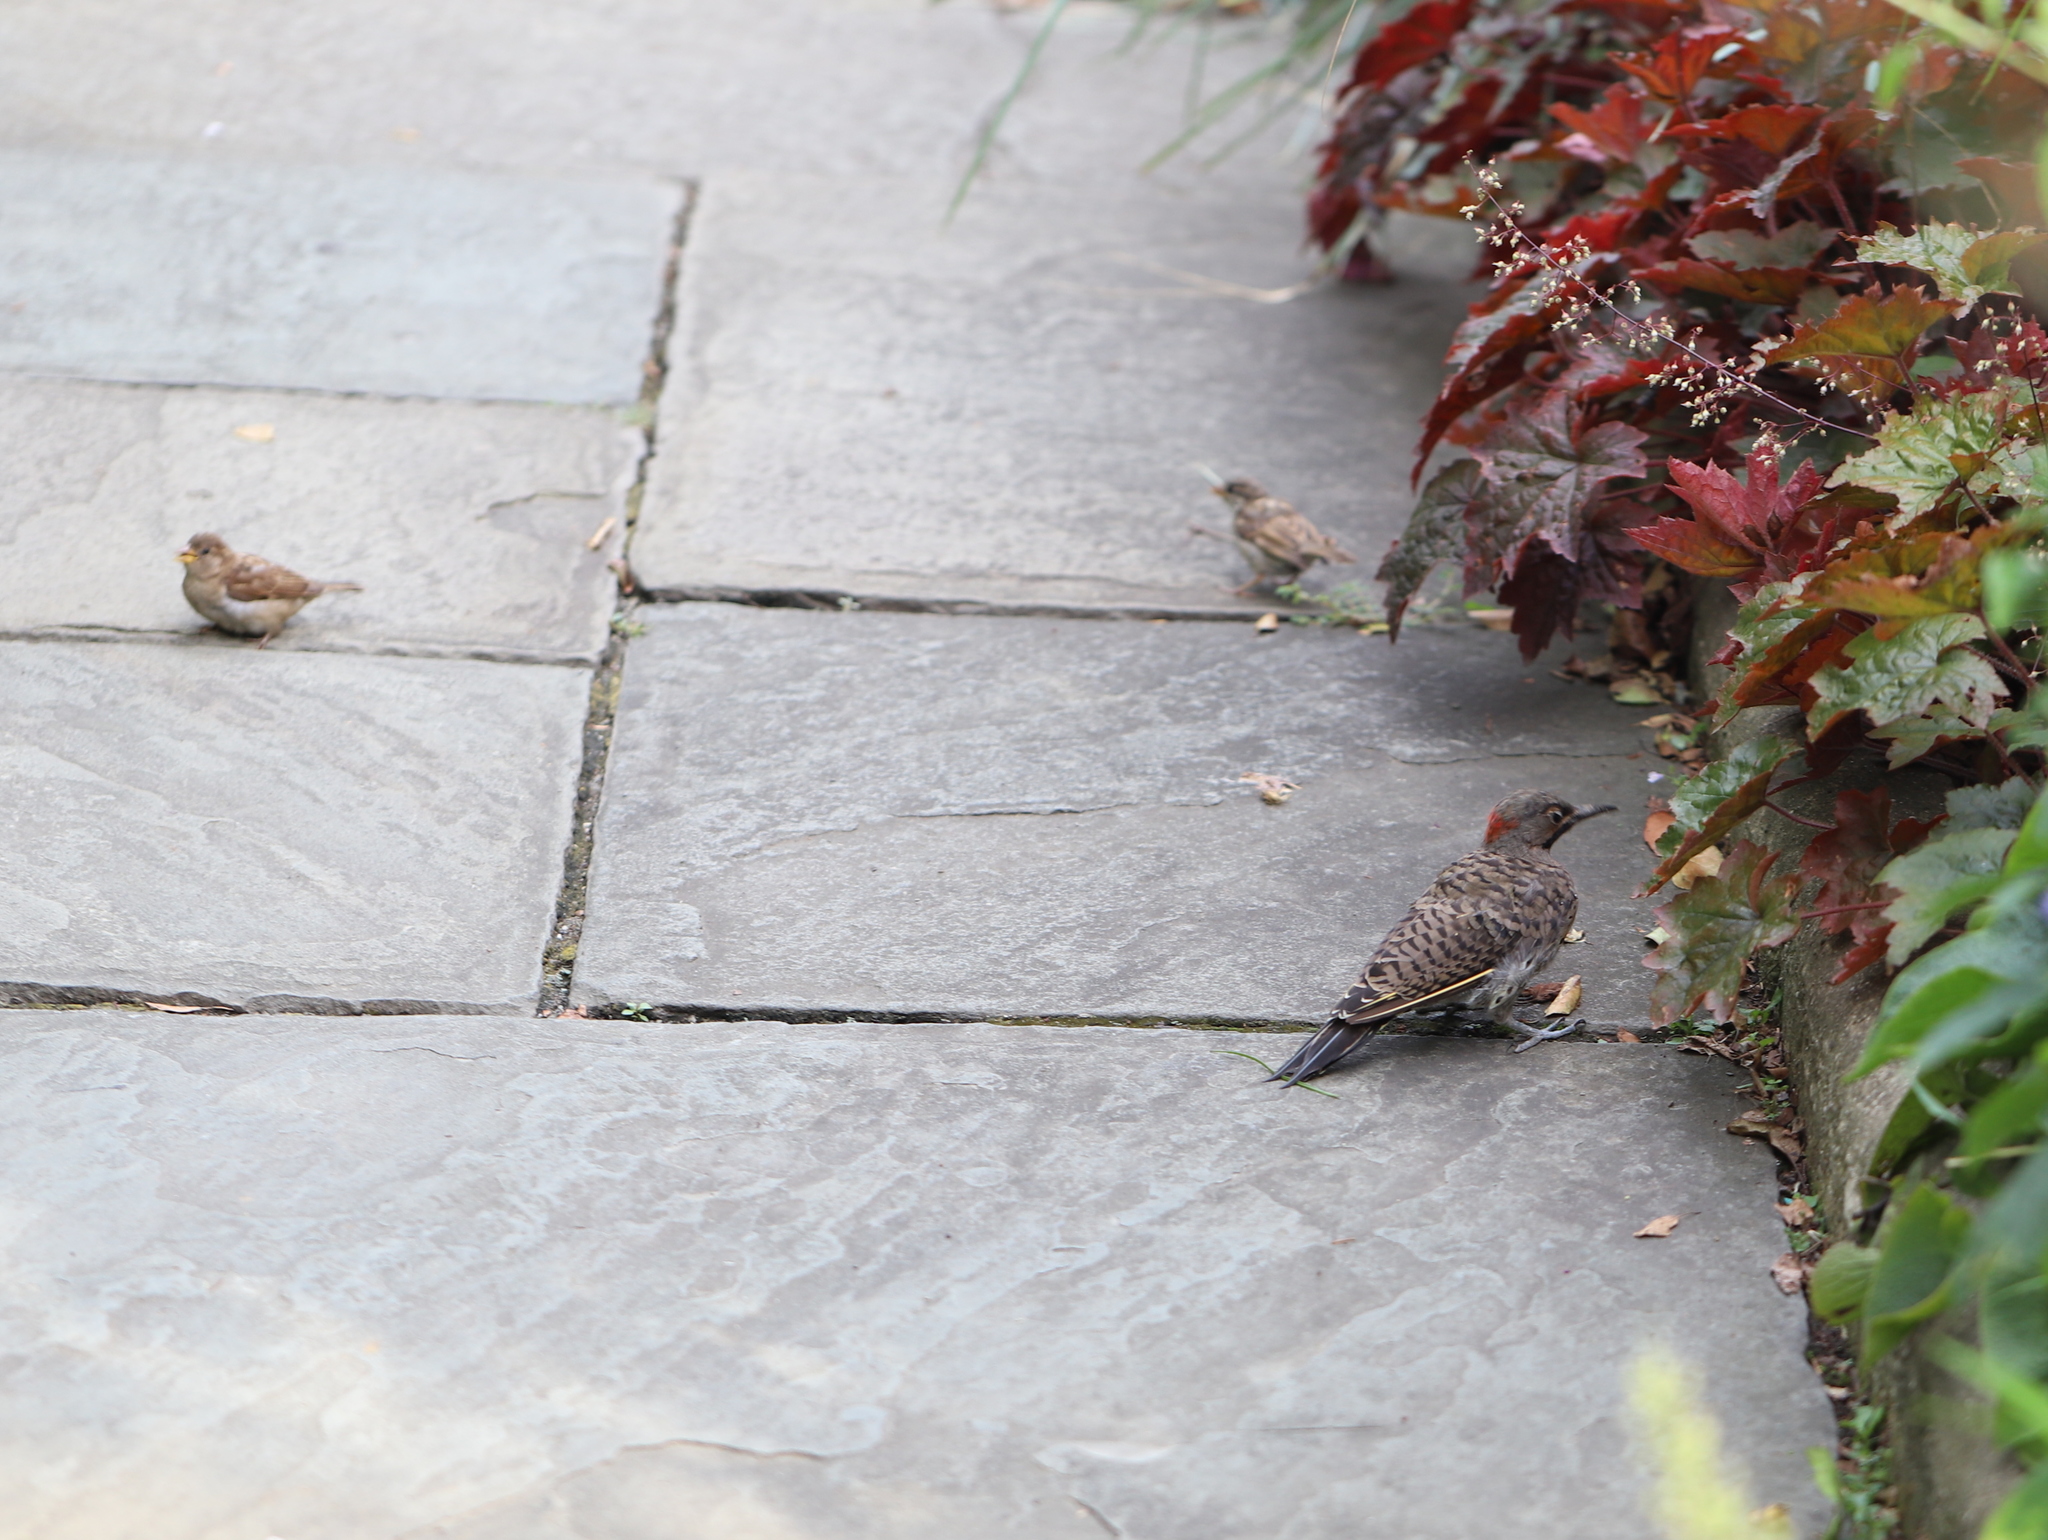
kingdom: Animalia
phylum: Chordata
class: Aves
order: Piciformes
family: Picidae
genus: Colaptes
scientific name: Colaptes auratus
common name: Northern flicker
